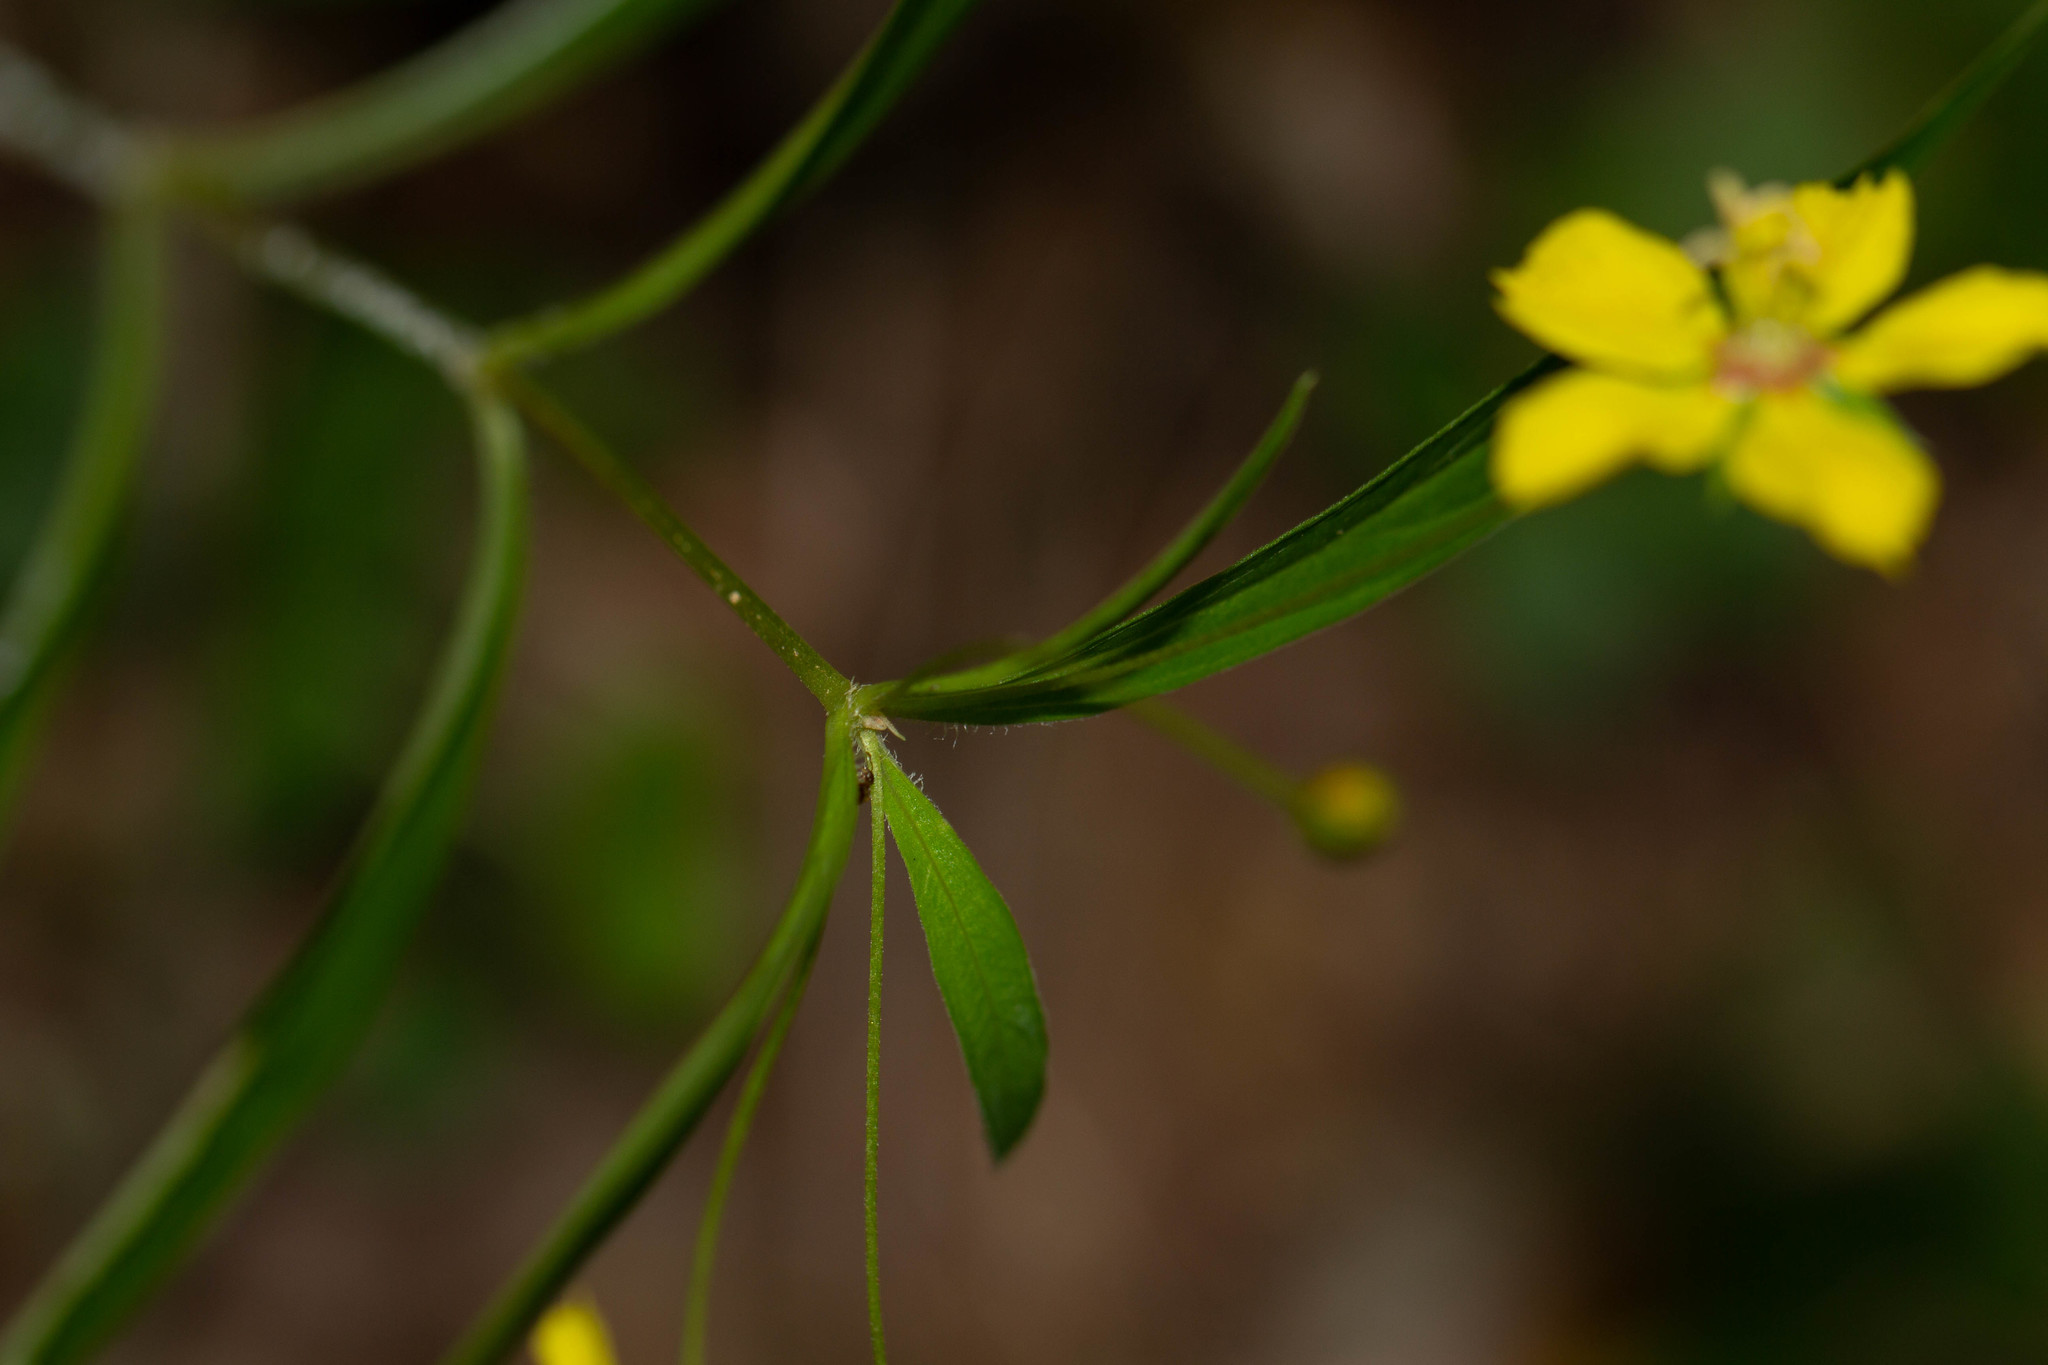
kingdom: Plantae
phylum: Tracheophyta
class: Magnoliopsida
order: Ericales
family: Primulaceae
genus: Lysimachia
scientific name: Lysimachia lanceolata
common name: Lance-leaved loosestrife
